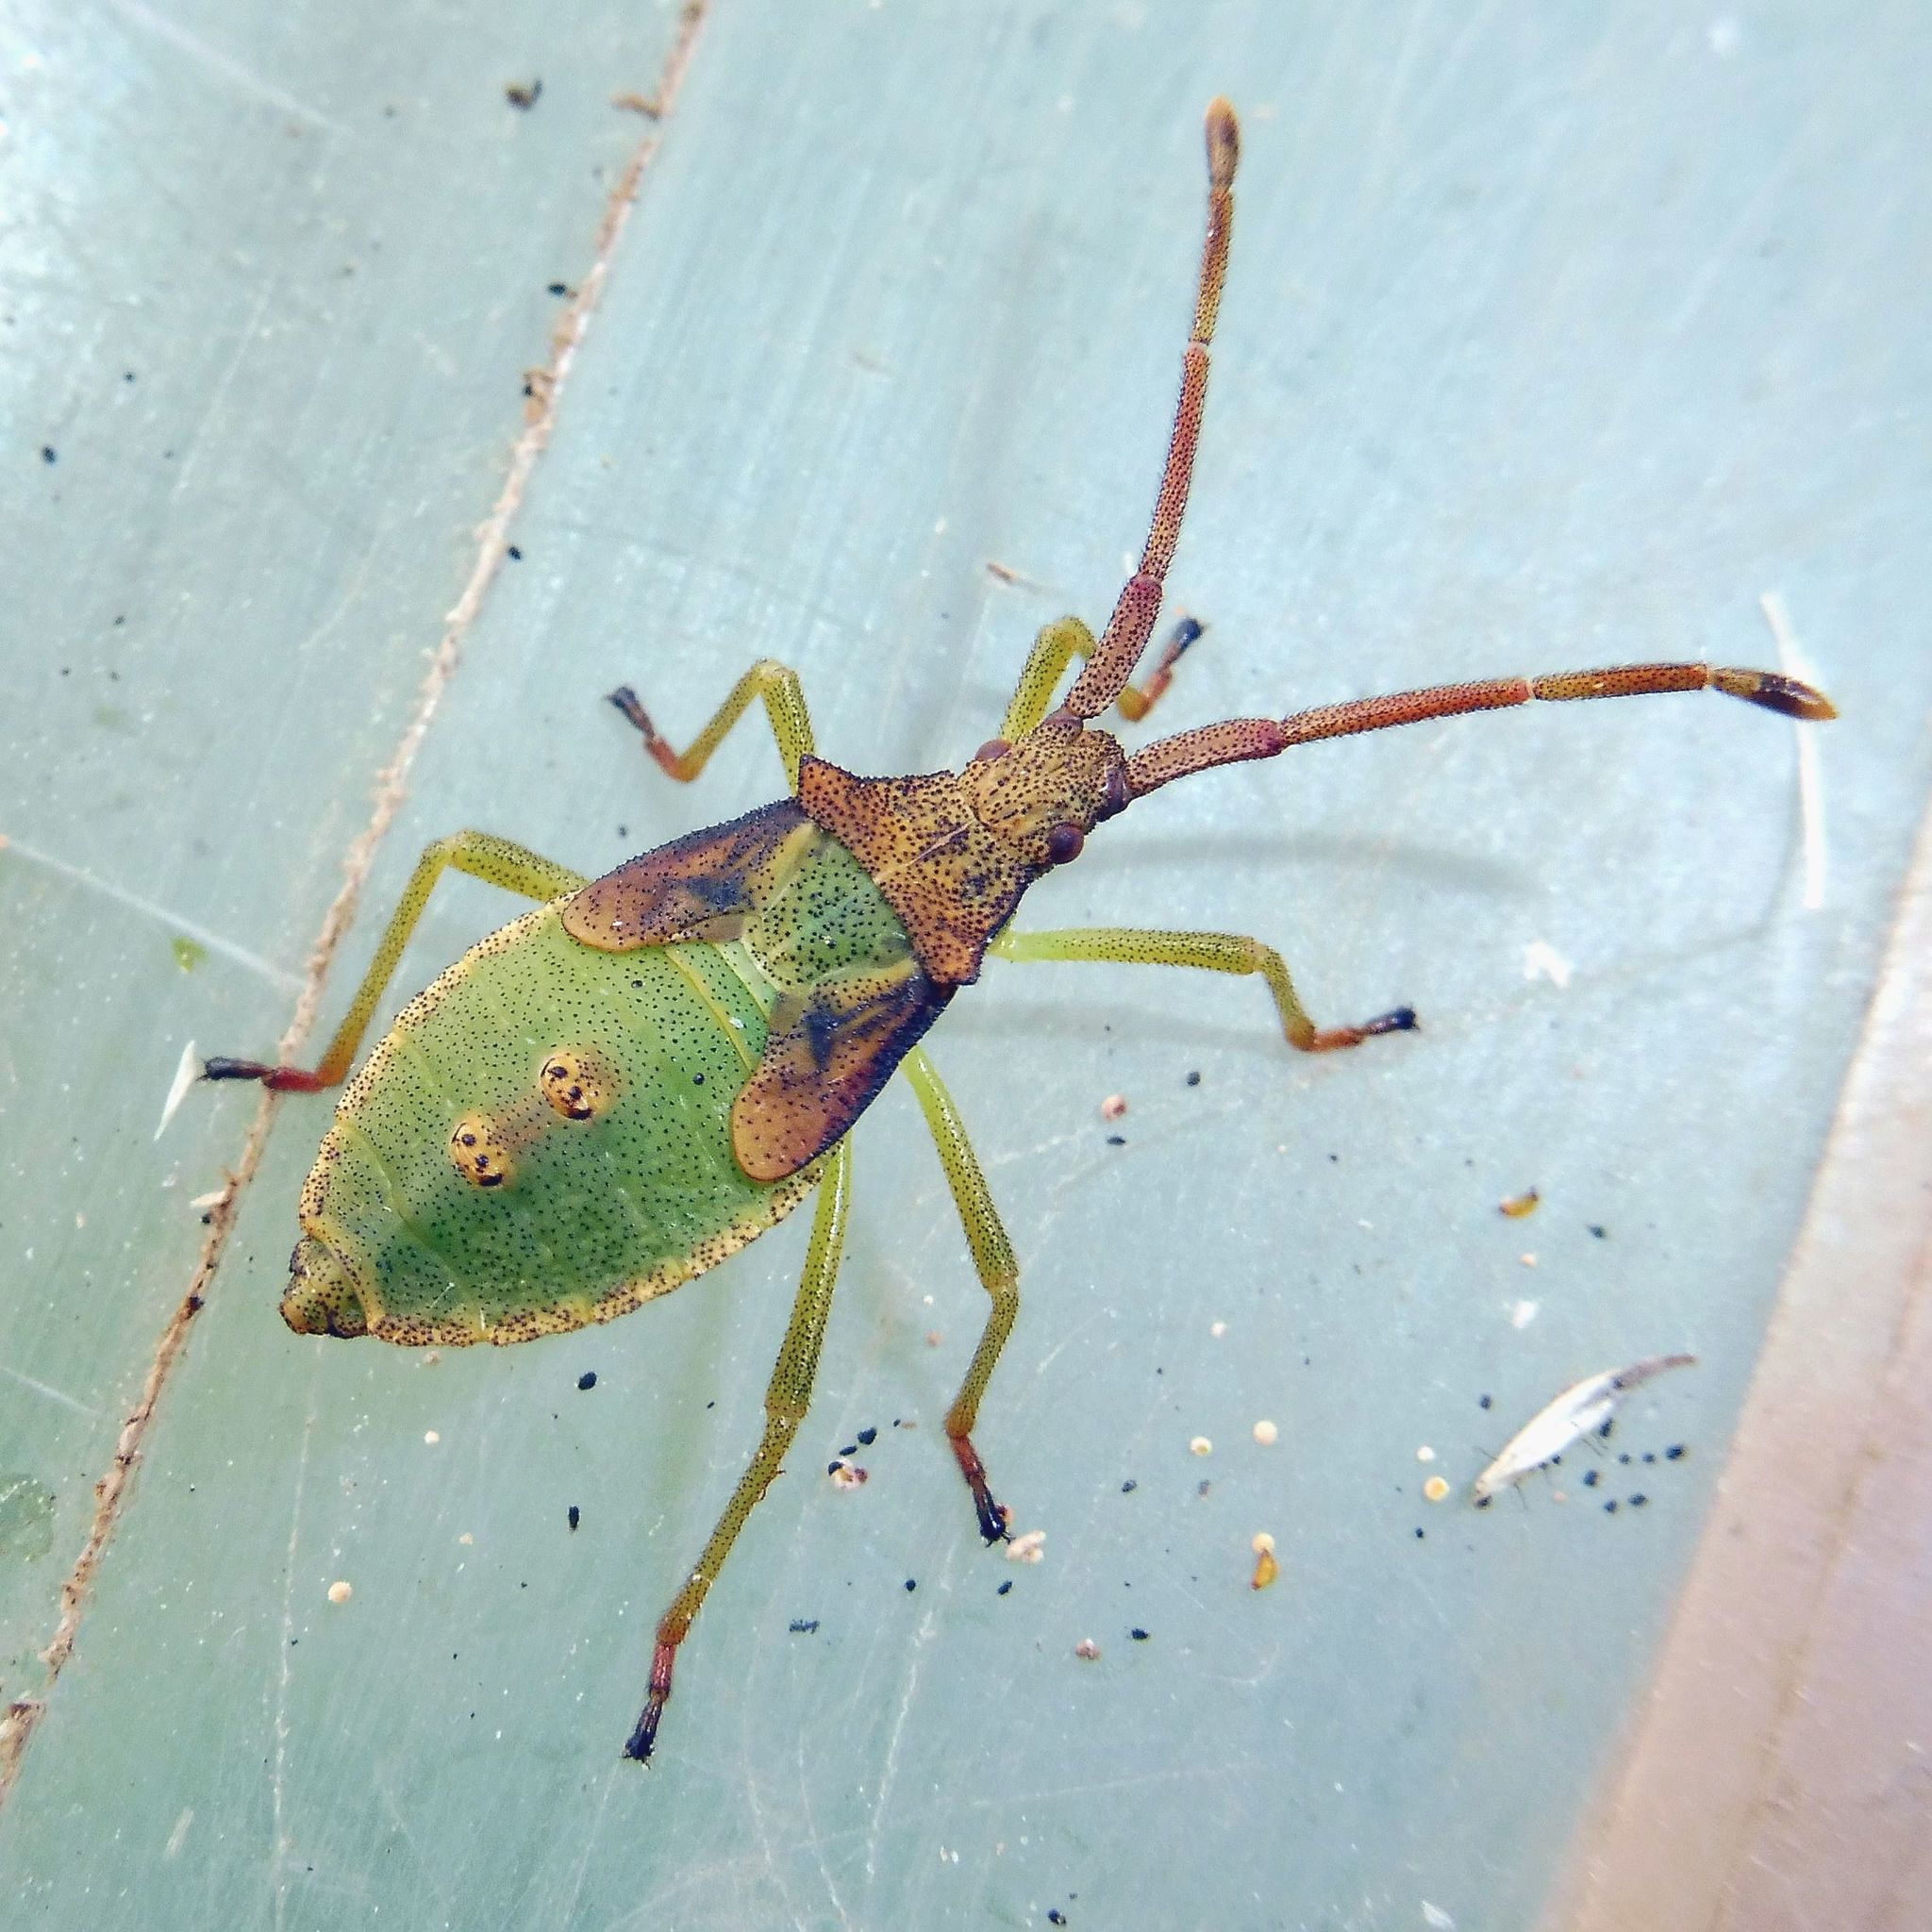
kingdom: Animalia
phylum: Arthropoda
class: Insecta
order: Hemiptera
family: Coreidae
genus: Gonocerus
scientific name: Gonocerus acuteangulatus
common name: Box bug
